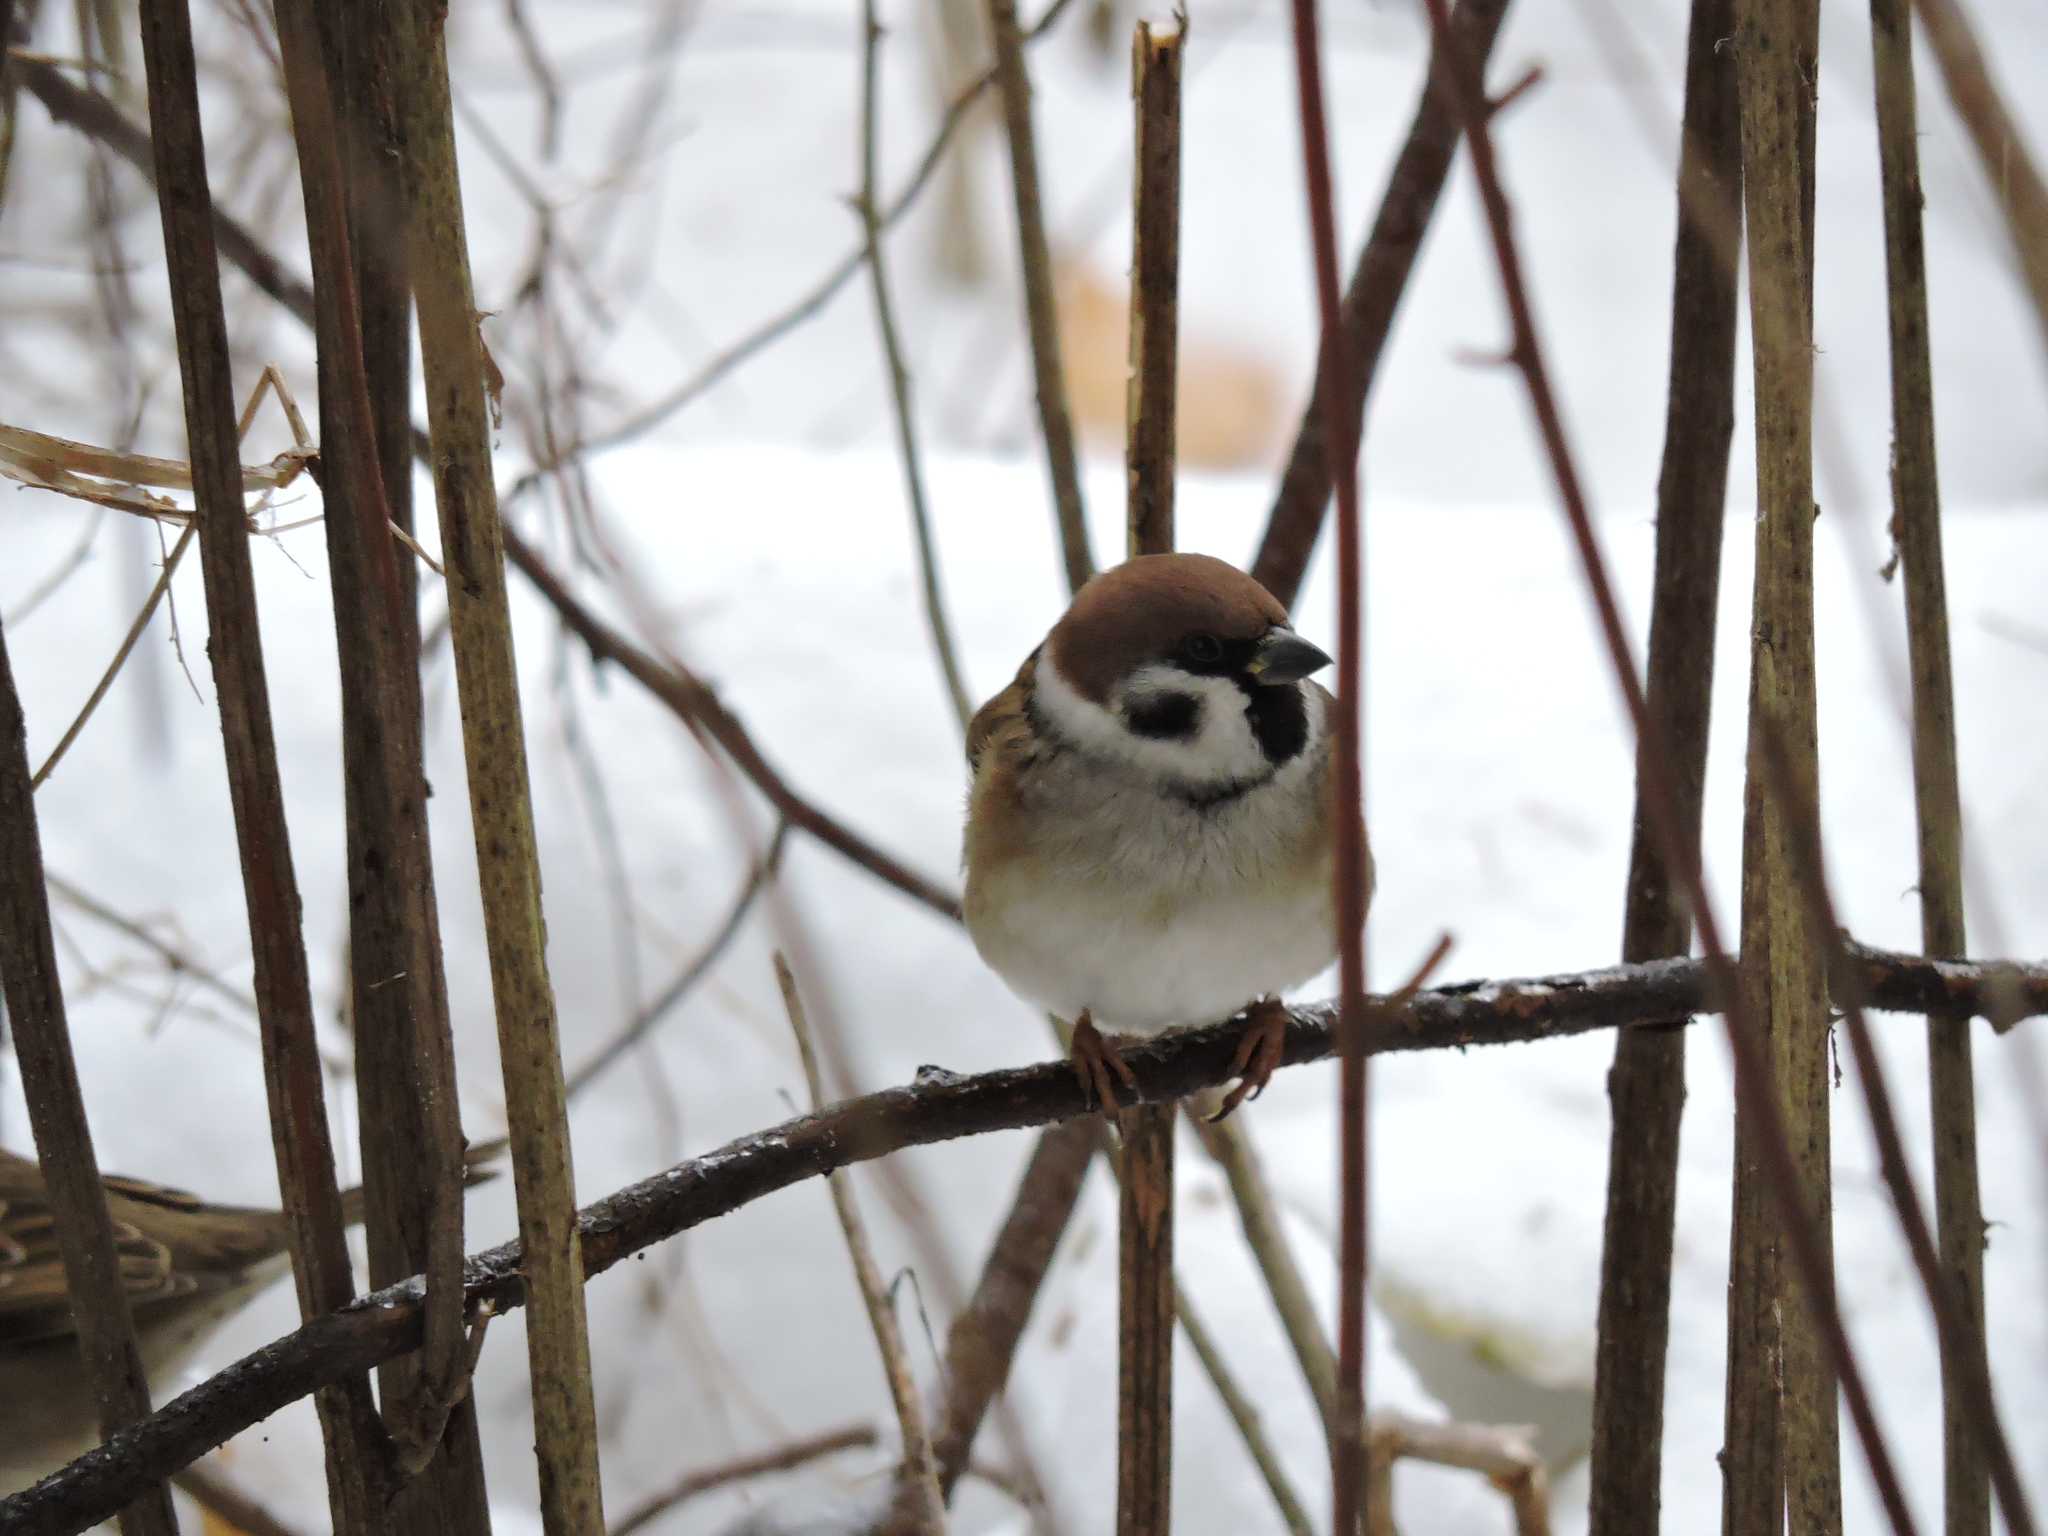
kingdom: Animalia
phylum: Chordata
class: Aves
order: Passeriformes
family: Passeridae
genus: Passer
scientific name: Passer montanus
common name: Eurasian tree sparrow
